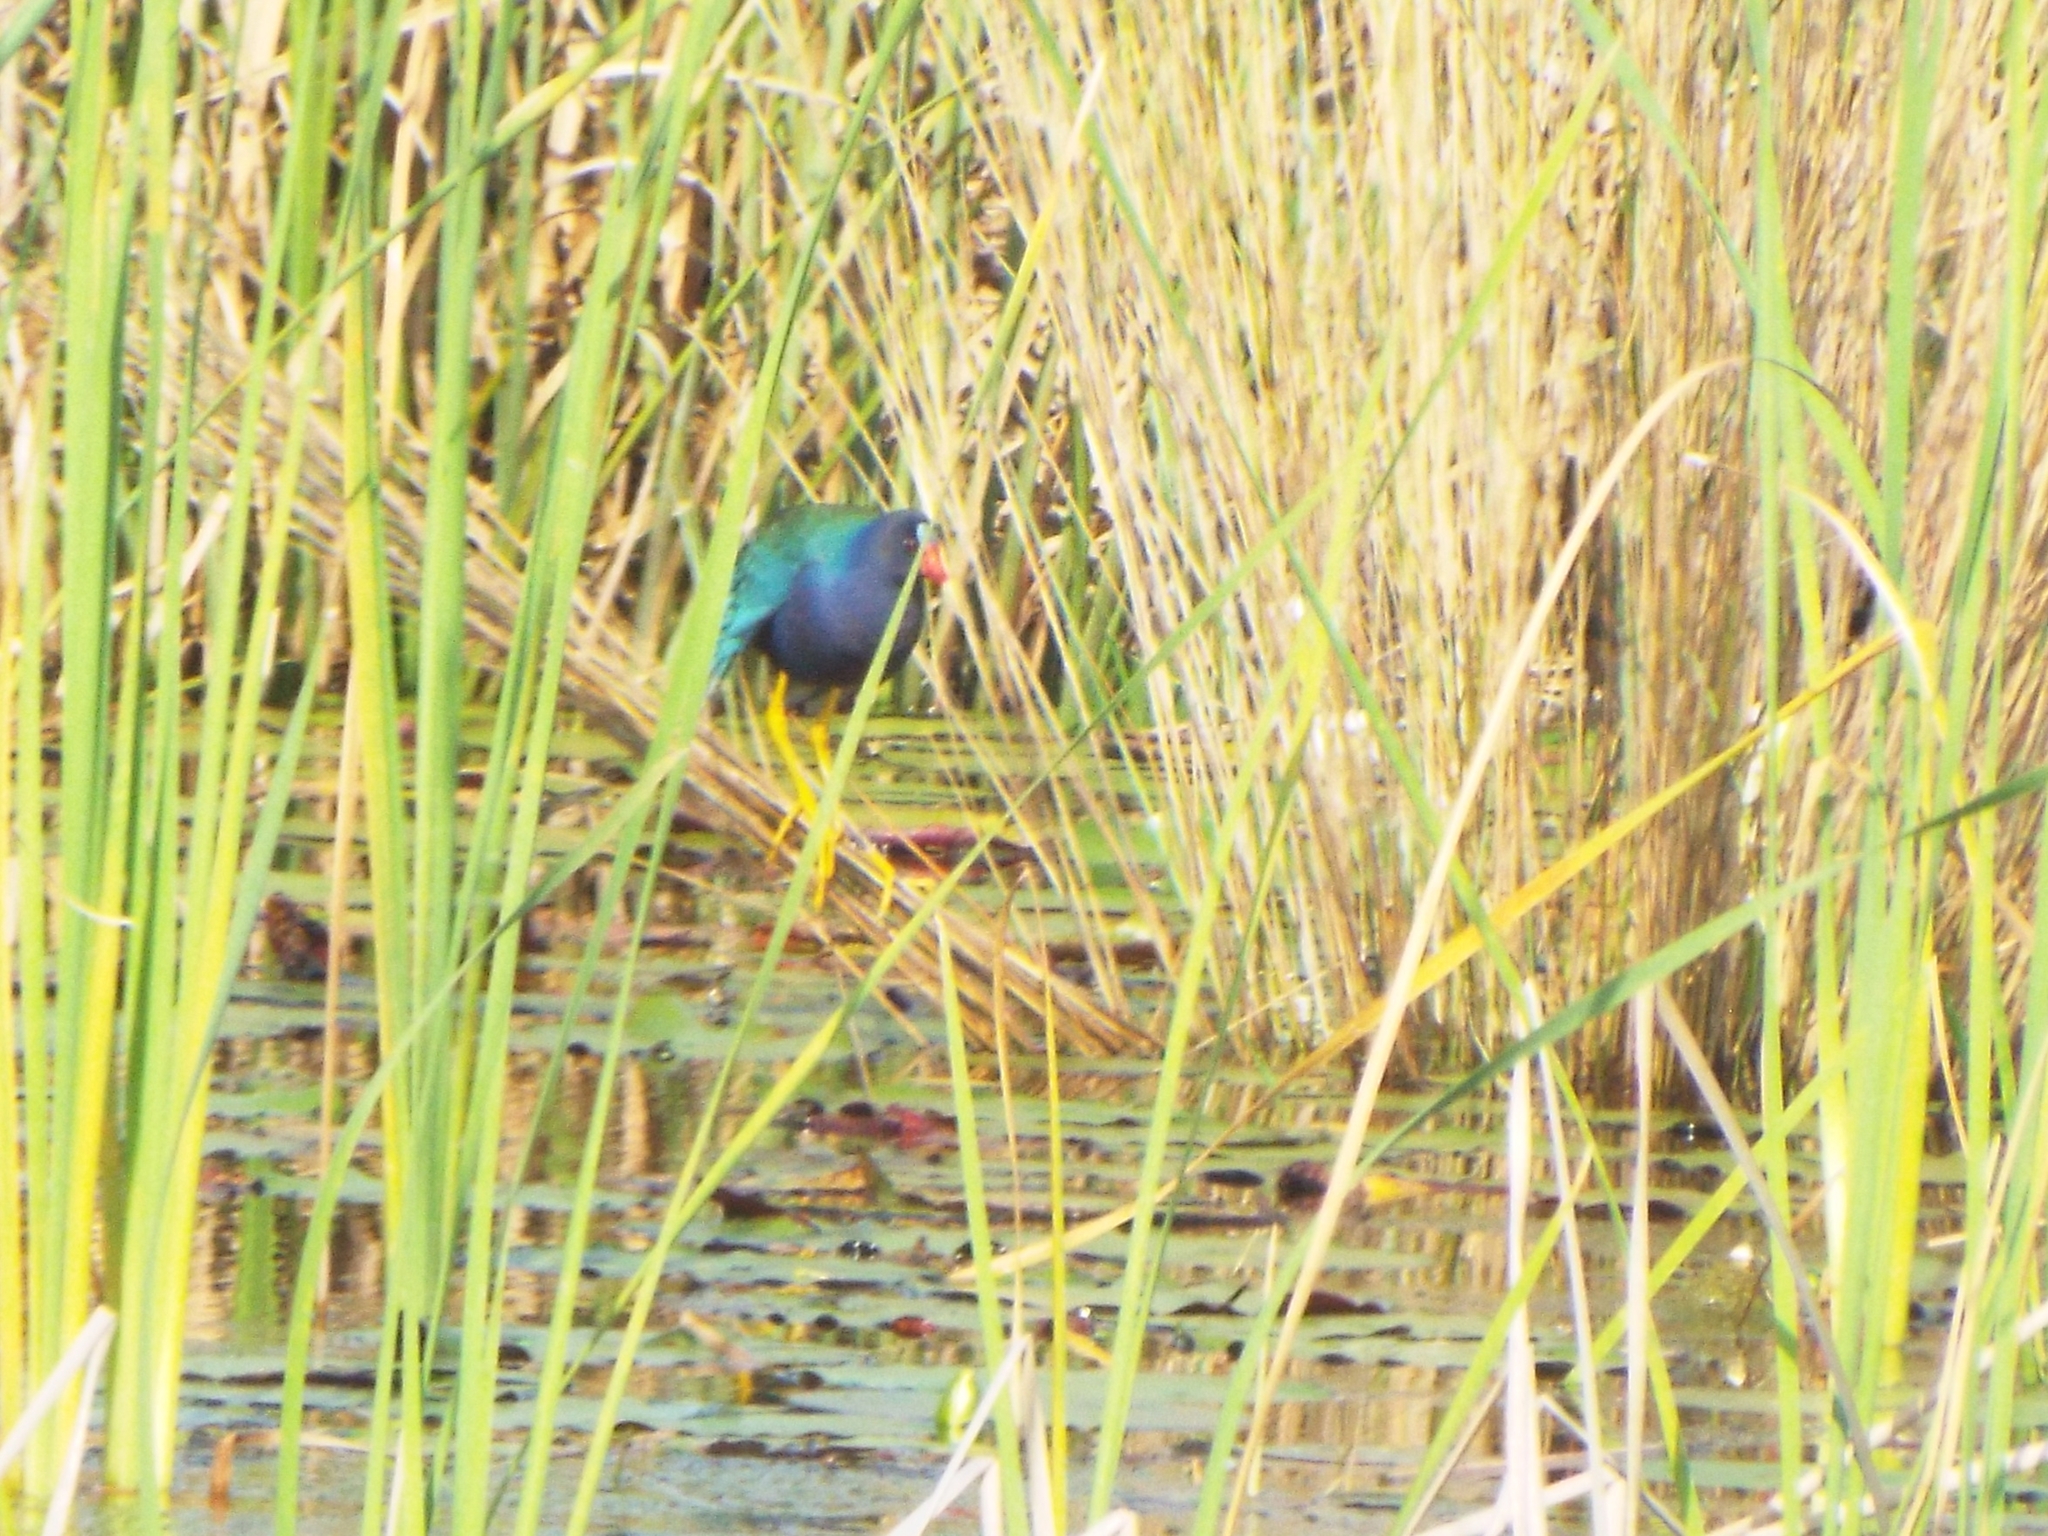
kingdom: Animalia
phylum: Chordata
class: Aves
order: Gruiformes
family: Rallidae
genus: Porphyrio
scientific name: Porphyrio martinica
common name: Purple gallinule
